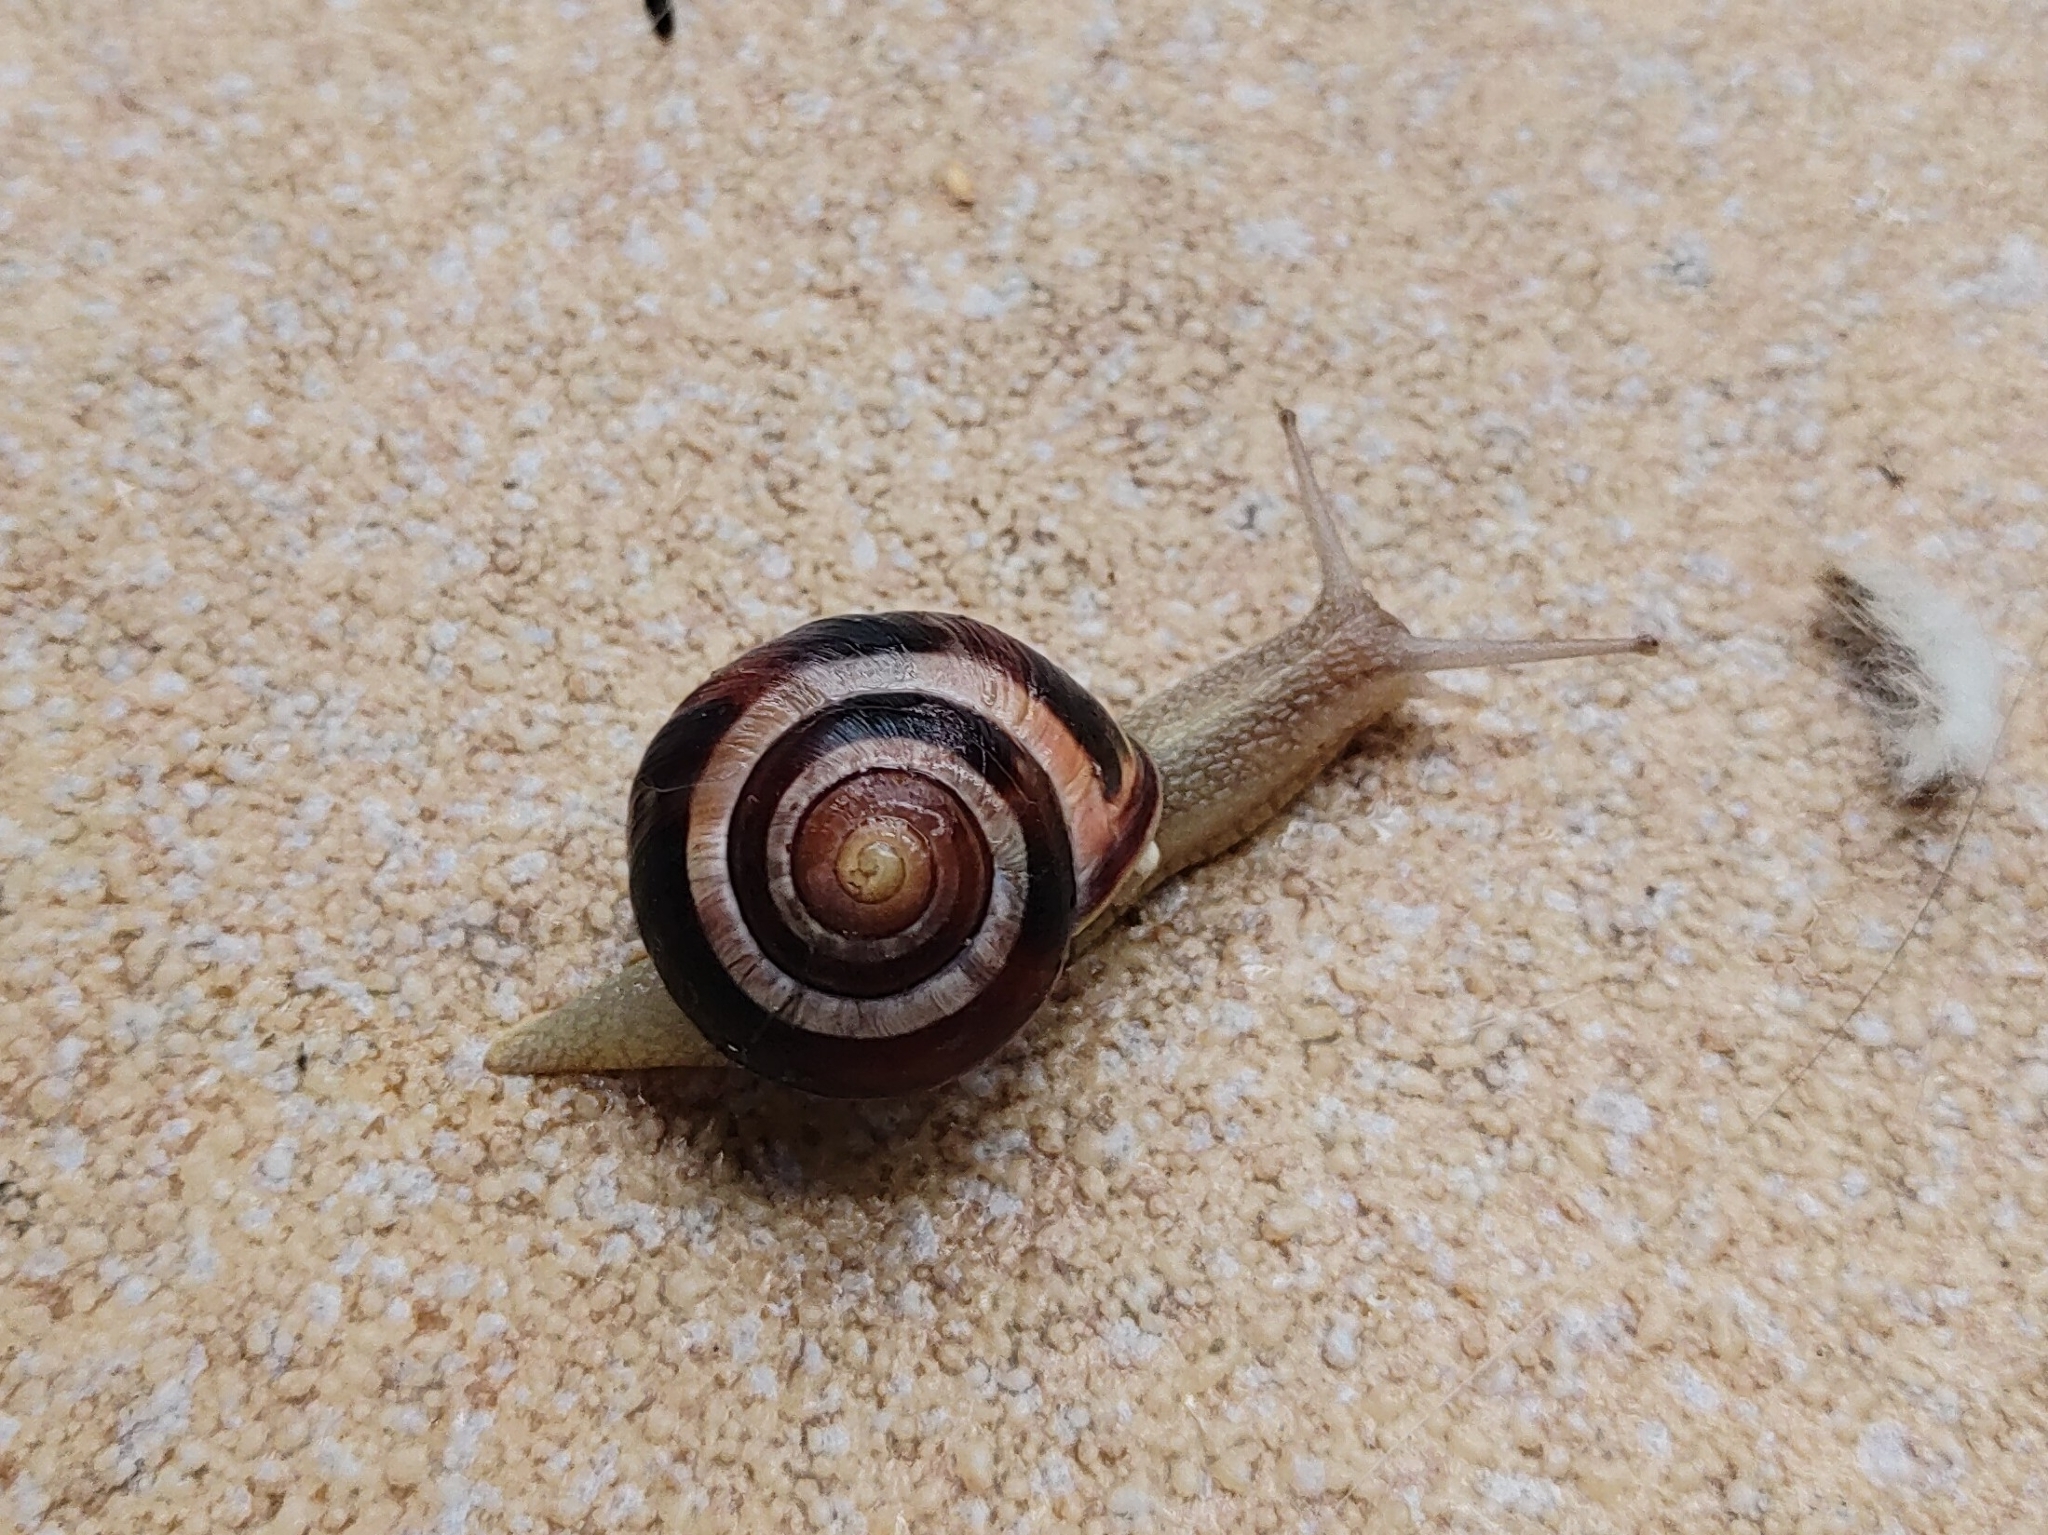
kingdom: Animalia
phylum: Mollusca
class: Gastropoda
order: Stylommatophora
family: Helicidae
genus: Cepaea
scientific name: Cepaea nemoralis
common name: Grovesnail
